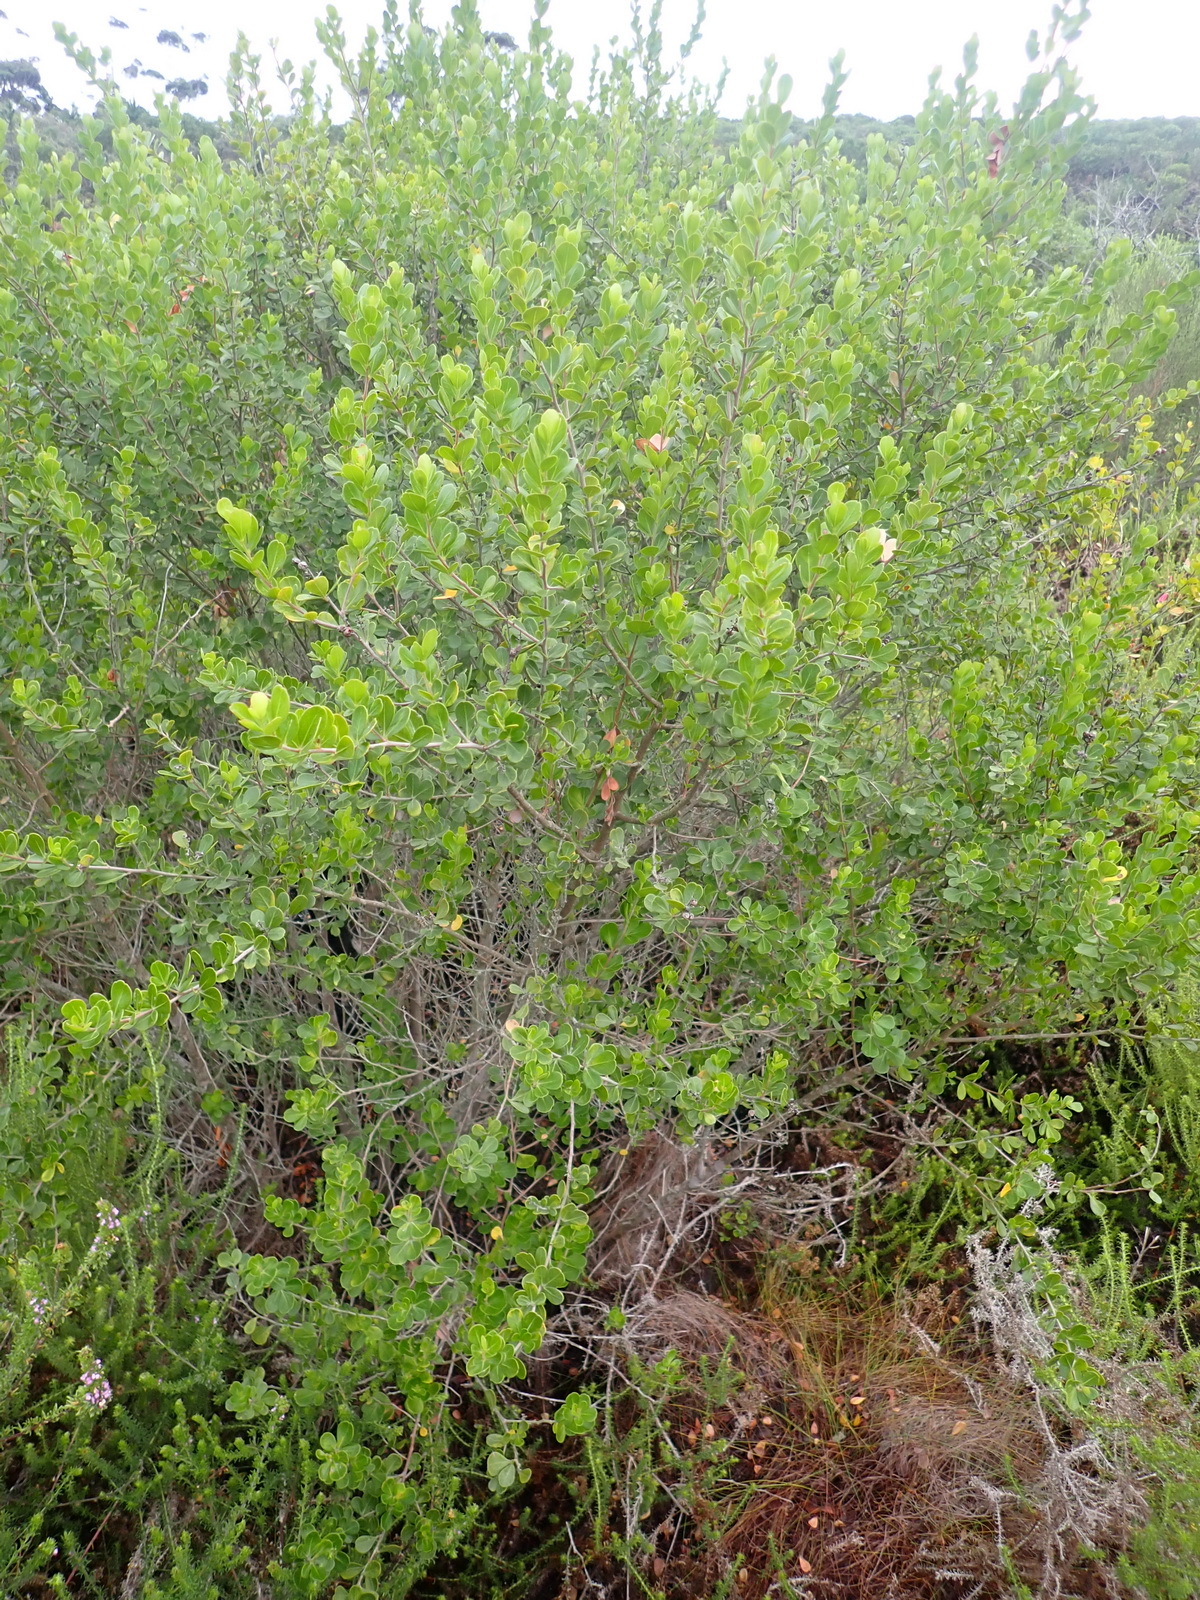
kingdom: Plantae
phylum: Tracheophyta
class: Magnoliopsida
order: Sapindales
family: Anacardiaceae
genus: Searsia
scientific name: Searsia lucida
